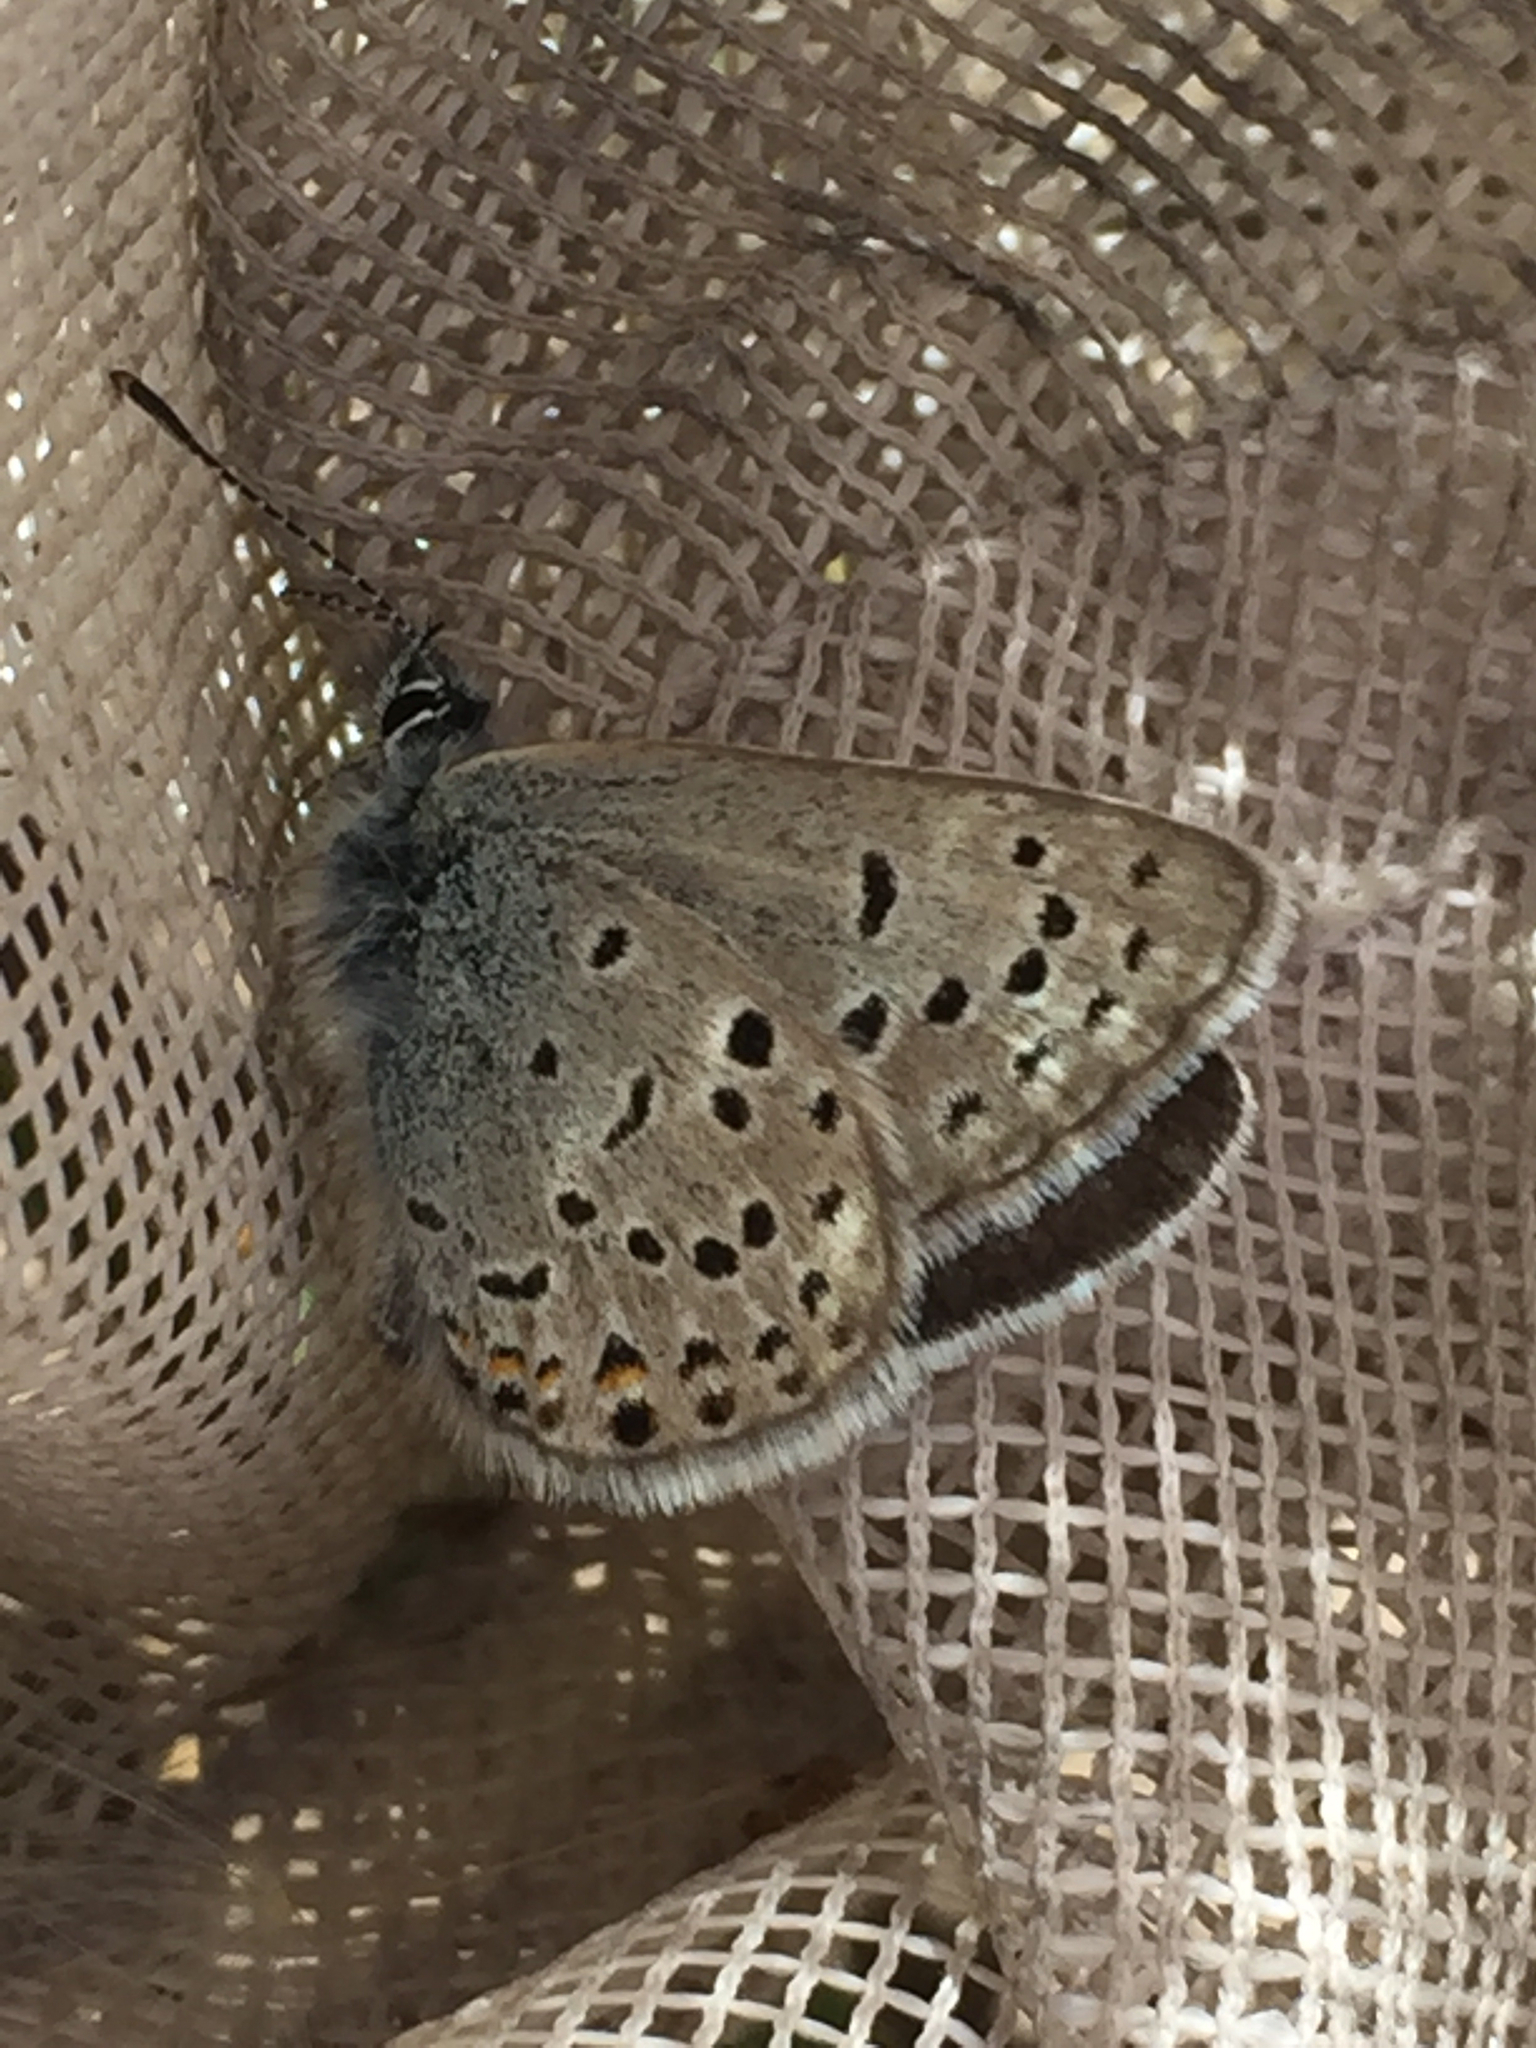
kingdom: Animalia
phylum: Arthropoda
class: Insecta
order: Lepidoptera
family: Lycaenidae
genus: Icaricia
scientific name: Icaricia saepiolus
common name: Greenish blue
